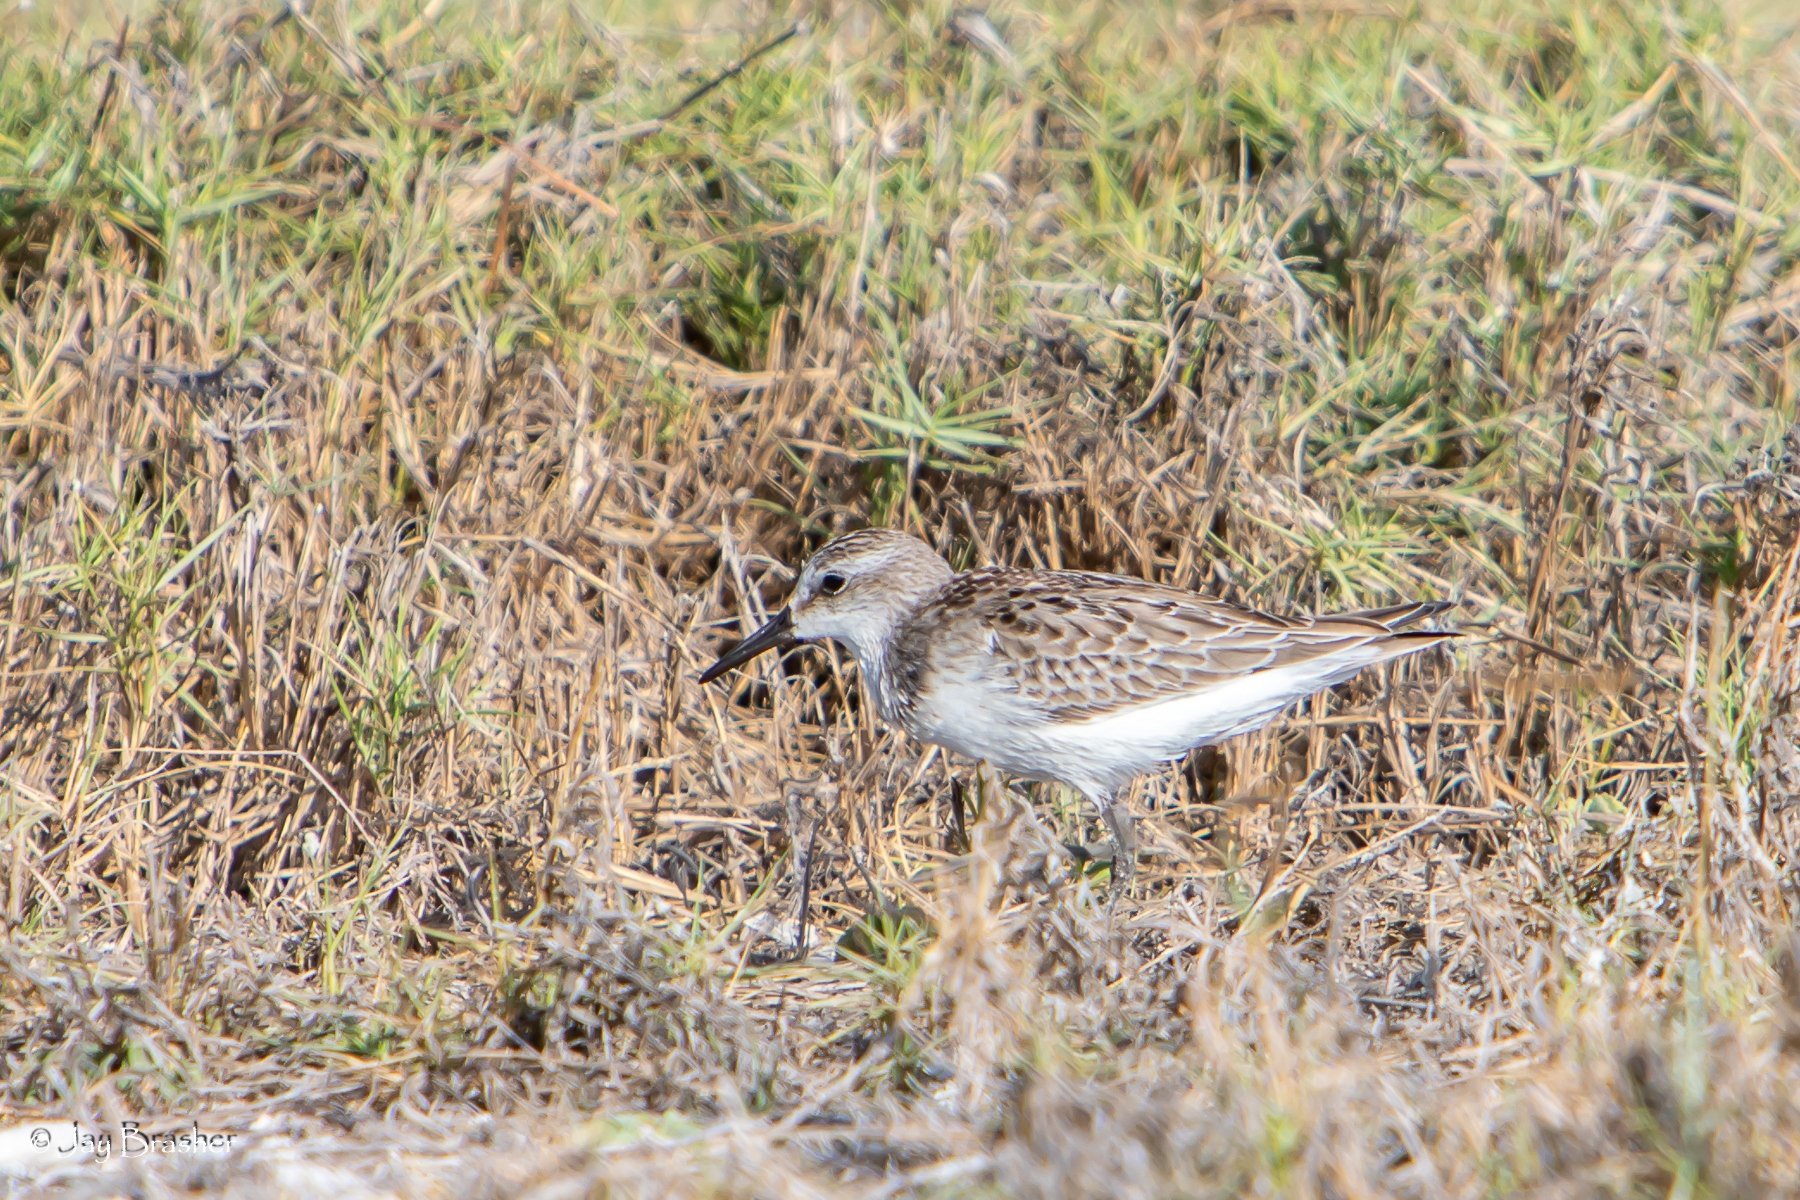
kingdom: Animalia
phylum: Chordata
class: Aves
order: Charadriiformes
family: Scolopacidae
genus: Calidris
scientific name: Calidris pusilla
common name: Semipalmated sandpiper
